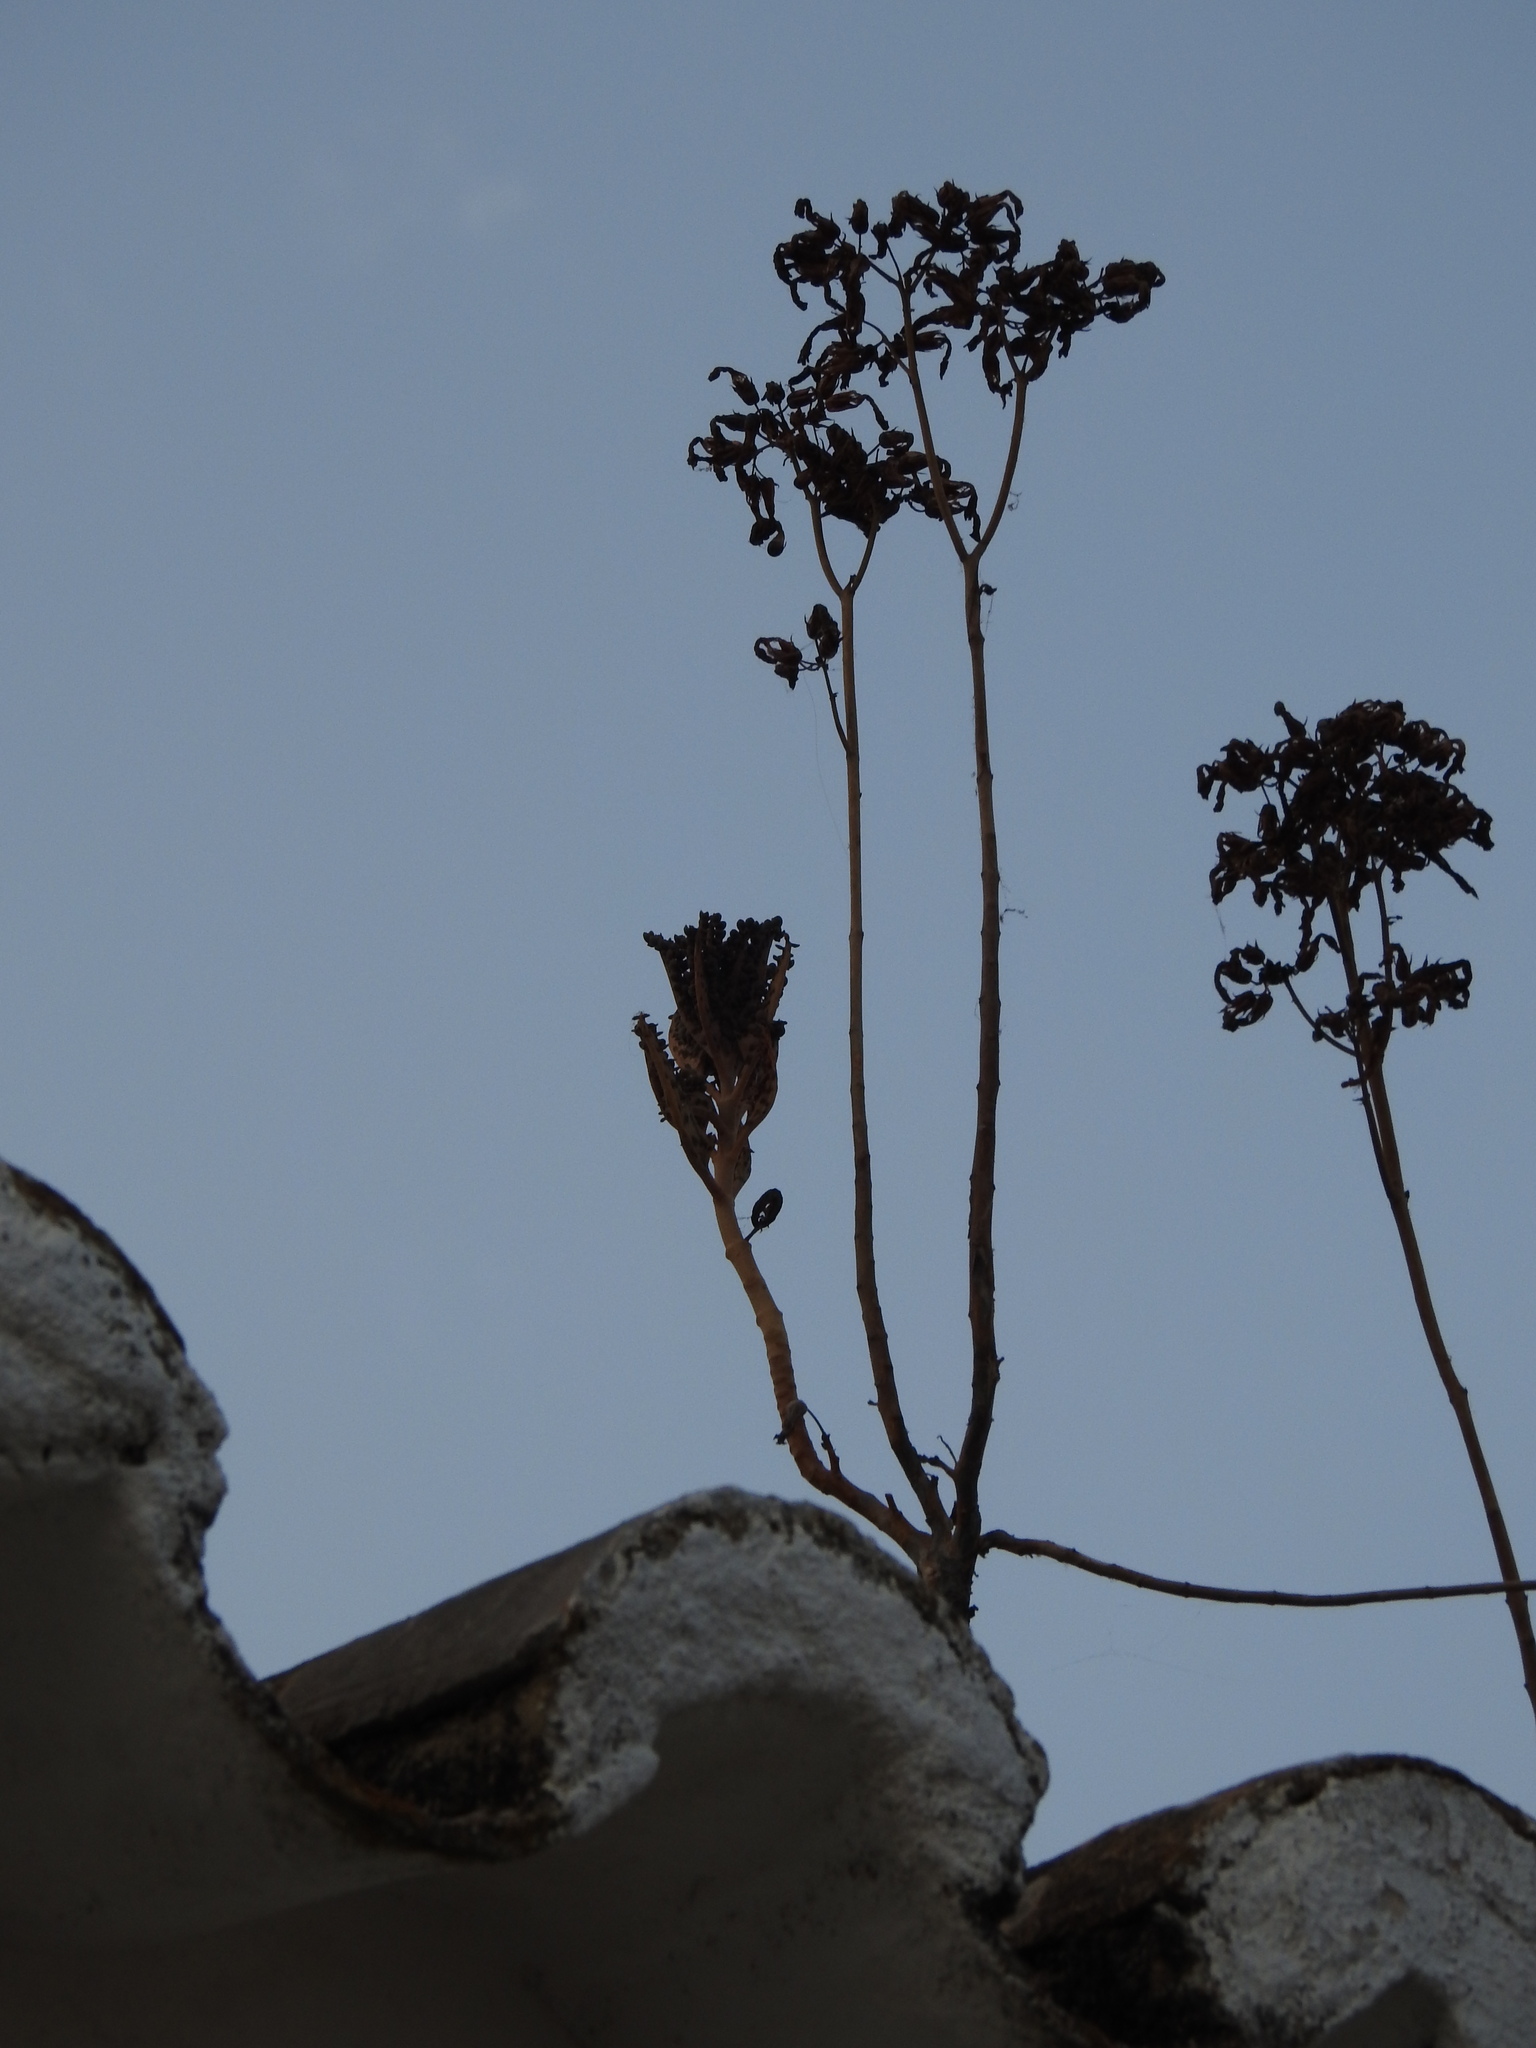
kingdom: Plantae
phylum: Tracheophyta
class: Magnoliopsida
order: Saxifragales
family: Crassulaceae
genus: Kalanchoe
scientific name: Kalanchoe houghtonii
